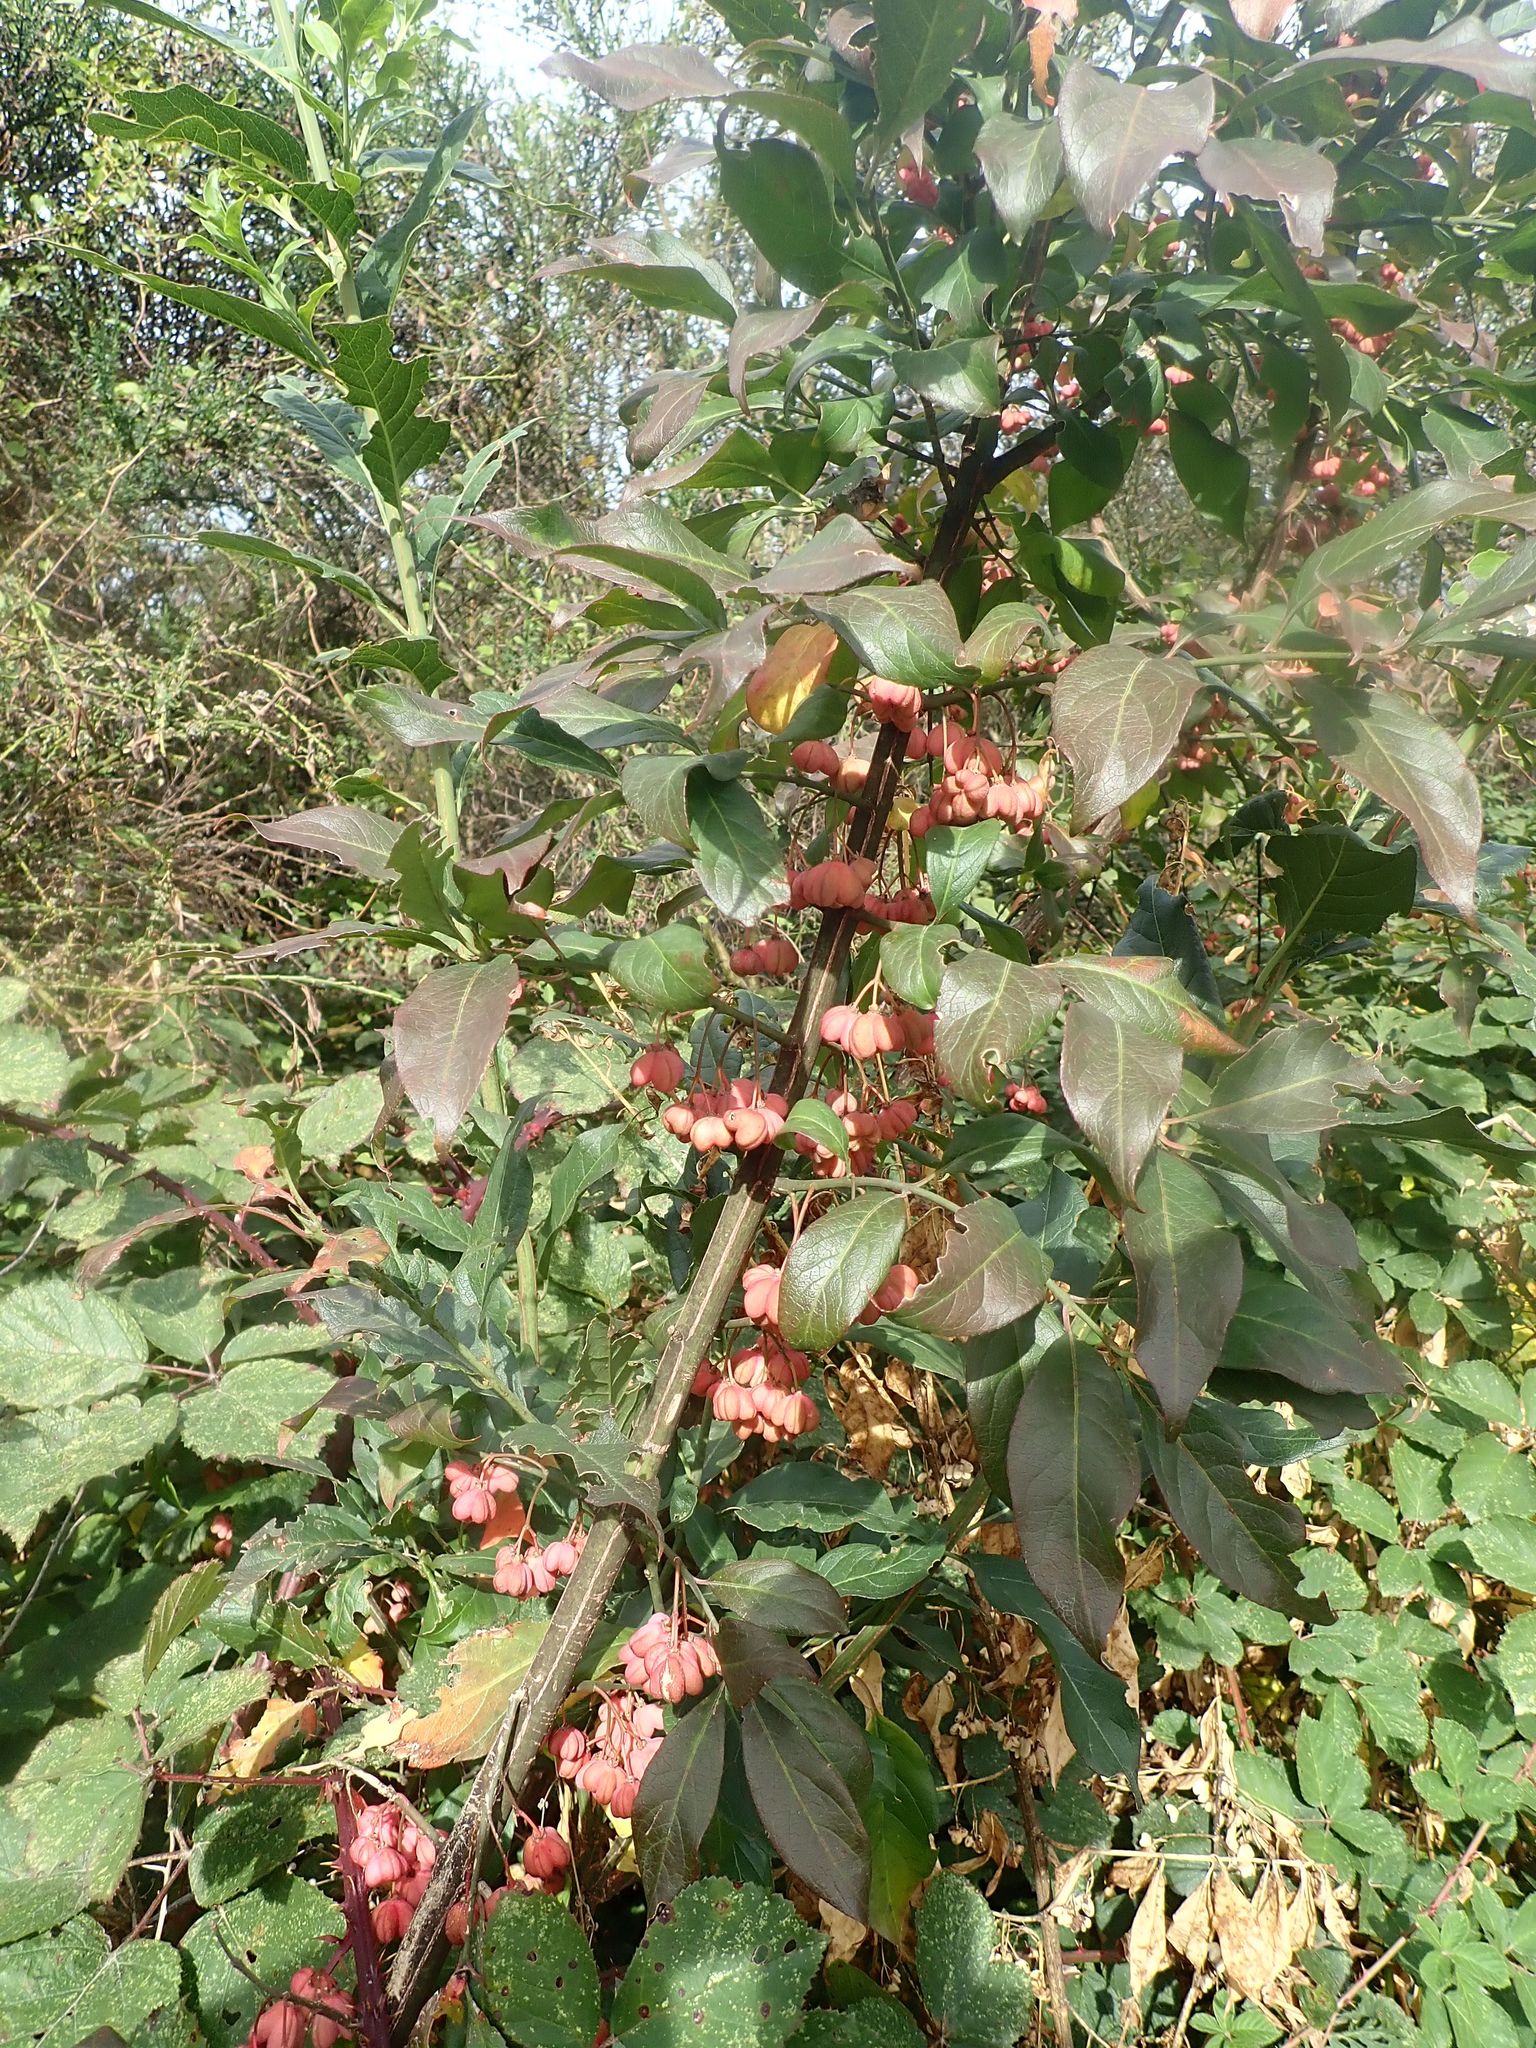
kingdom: Plantae
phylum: Tracheophyta
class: Magnoliopsida
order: Celastrales
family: Celastraceae
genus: Euonymus
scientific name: Euonymus europaeus
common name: Spindle
